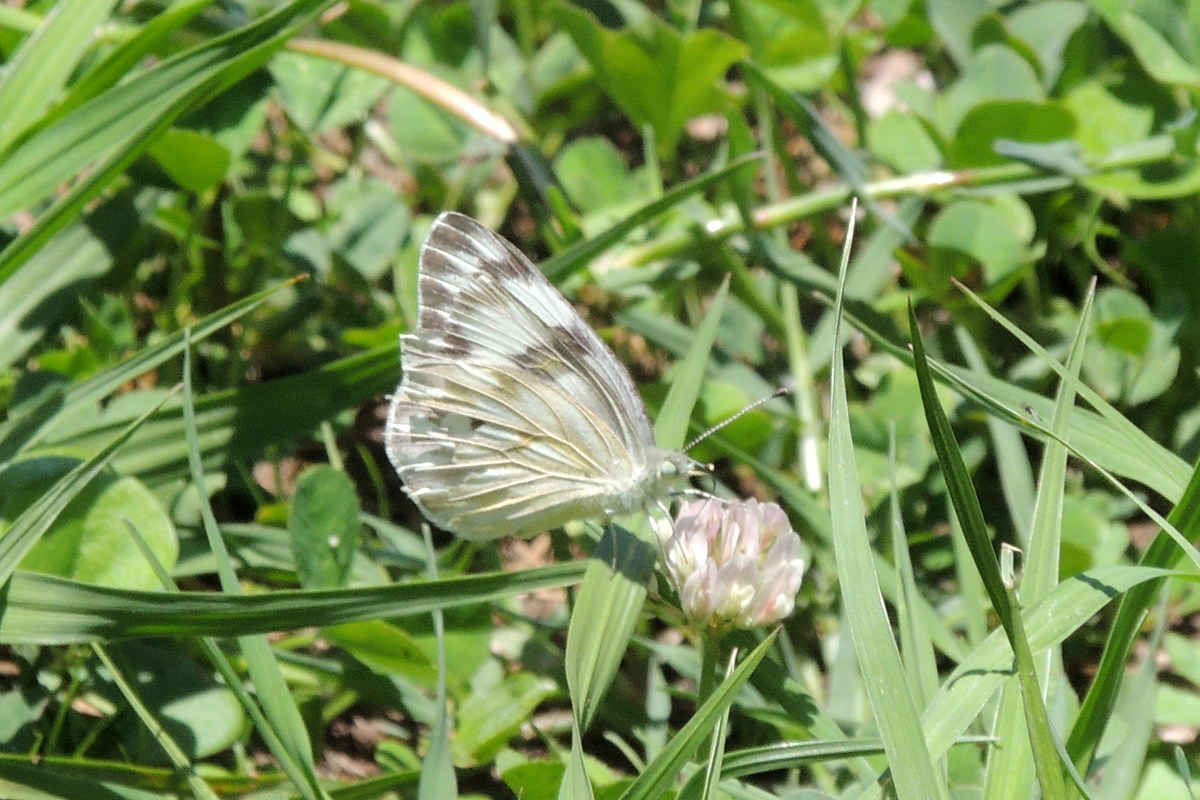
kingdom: Animalia
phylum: Arthropoda
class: Insecta
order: Lepidoptera
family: Pieridae
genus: Pontia
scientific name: Pontia protodice
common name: Checkered white
